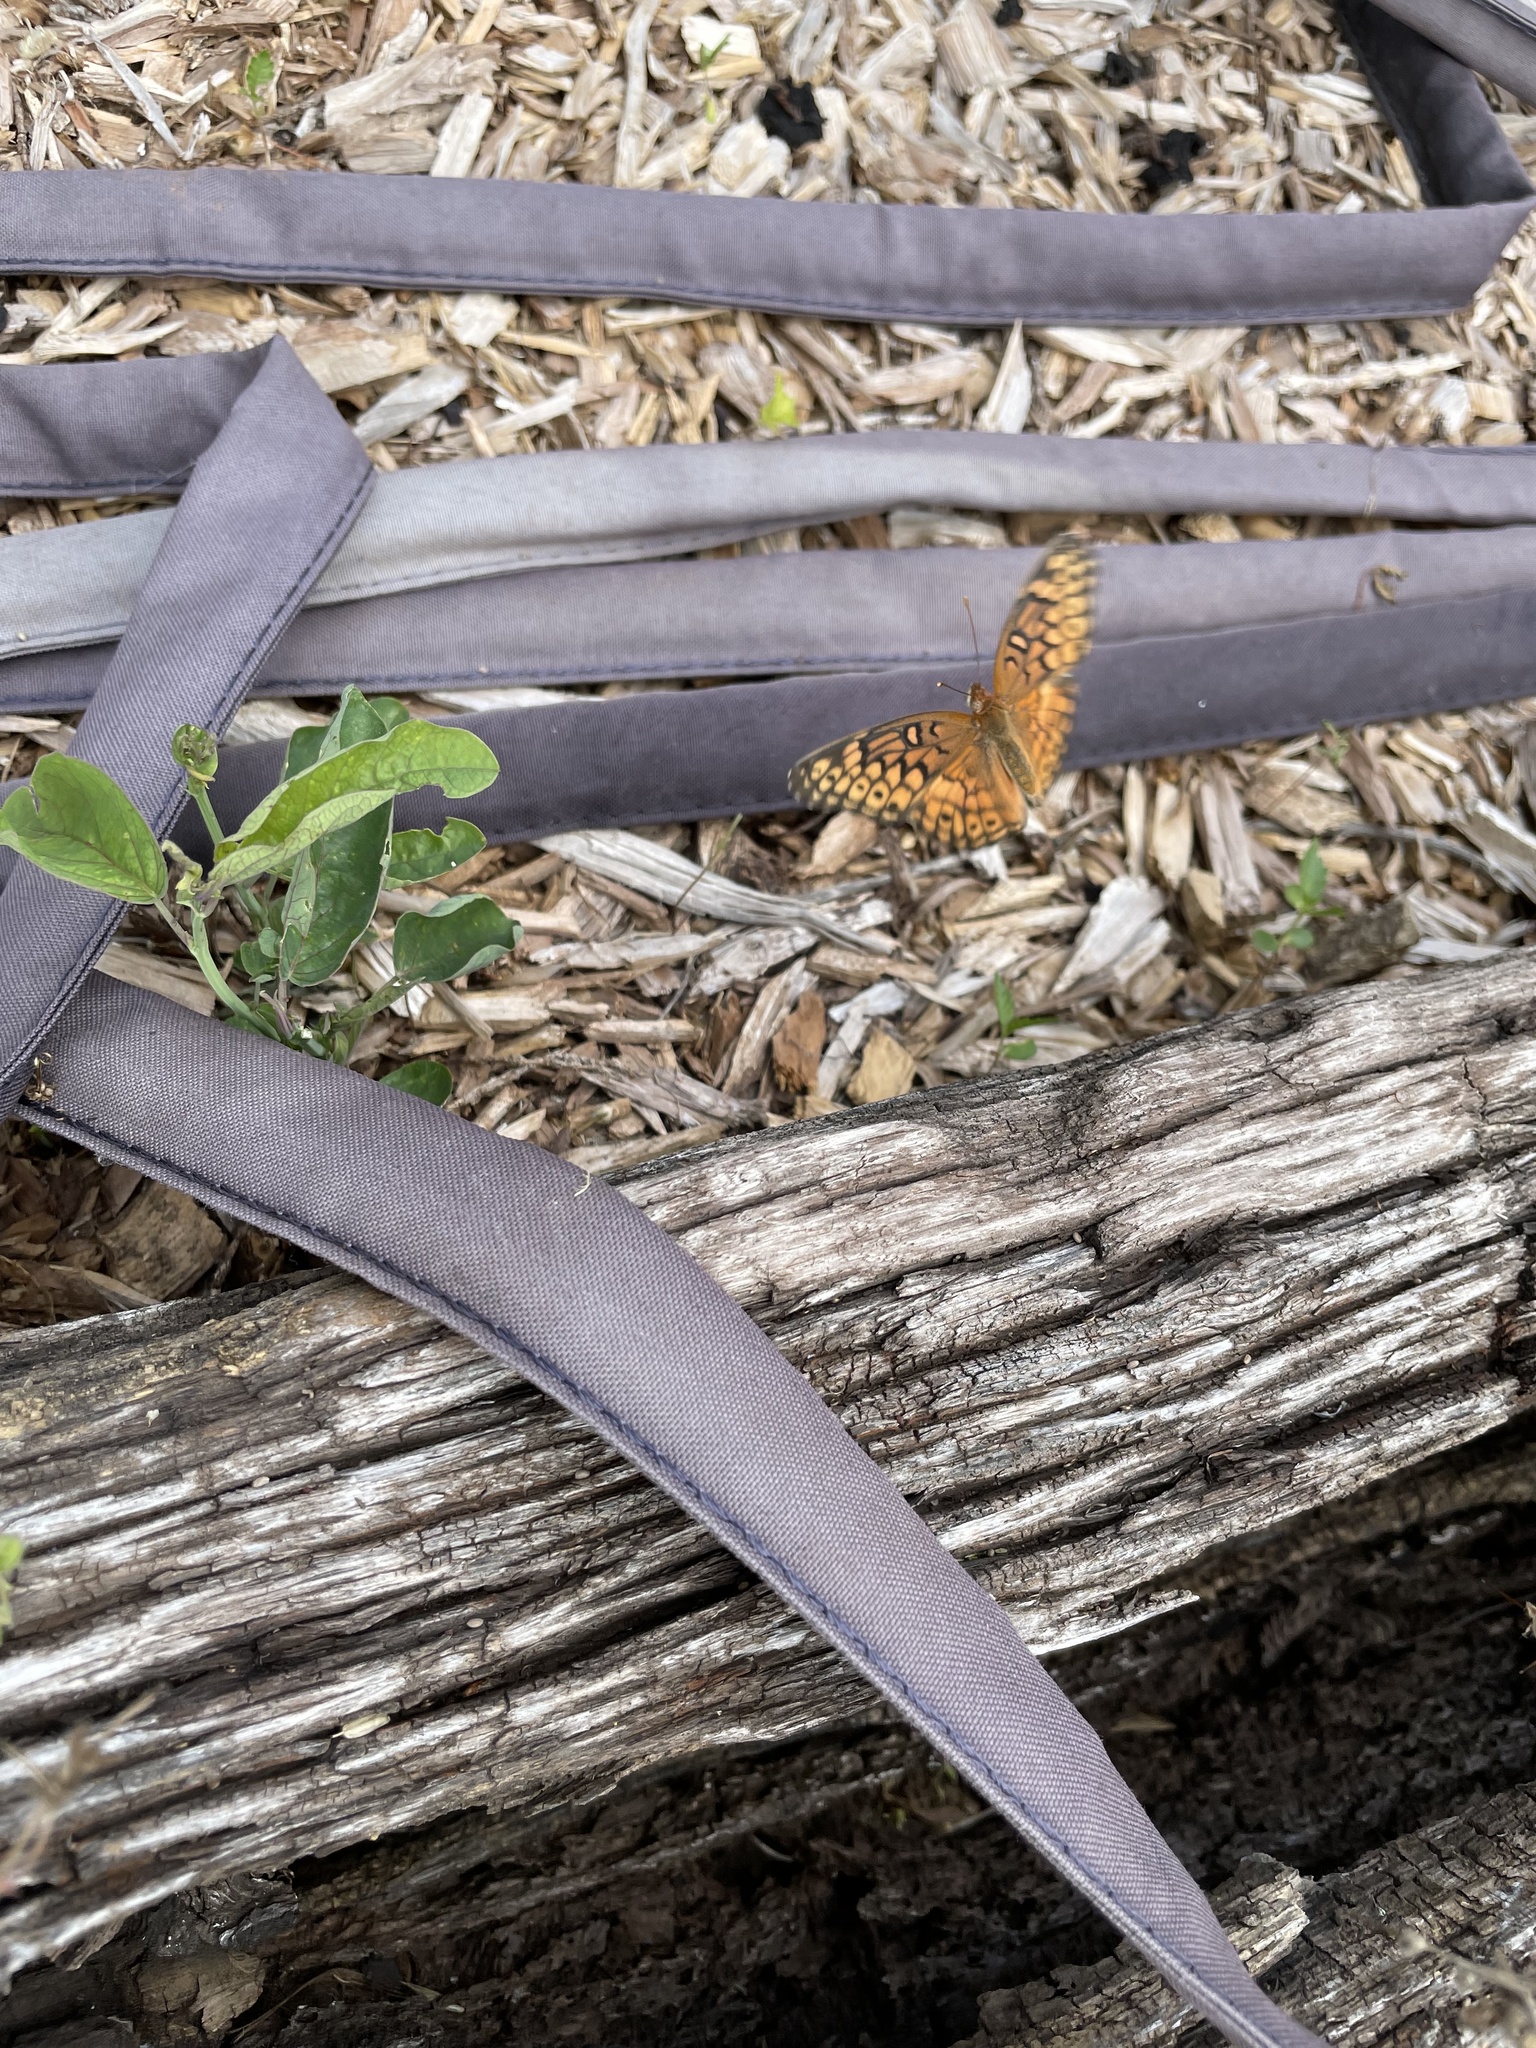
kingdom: Animalia
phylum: Arthropoda
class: Insecta
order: Lepidoptera
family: Nymphalidae
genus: Euptoieta
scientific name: Euptoieta claudia
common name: Variegated fritillary
